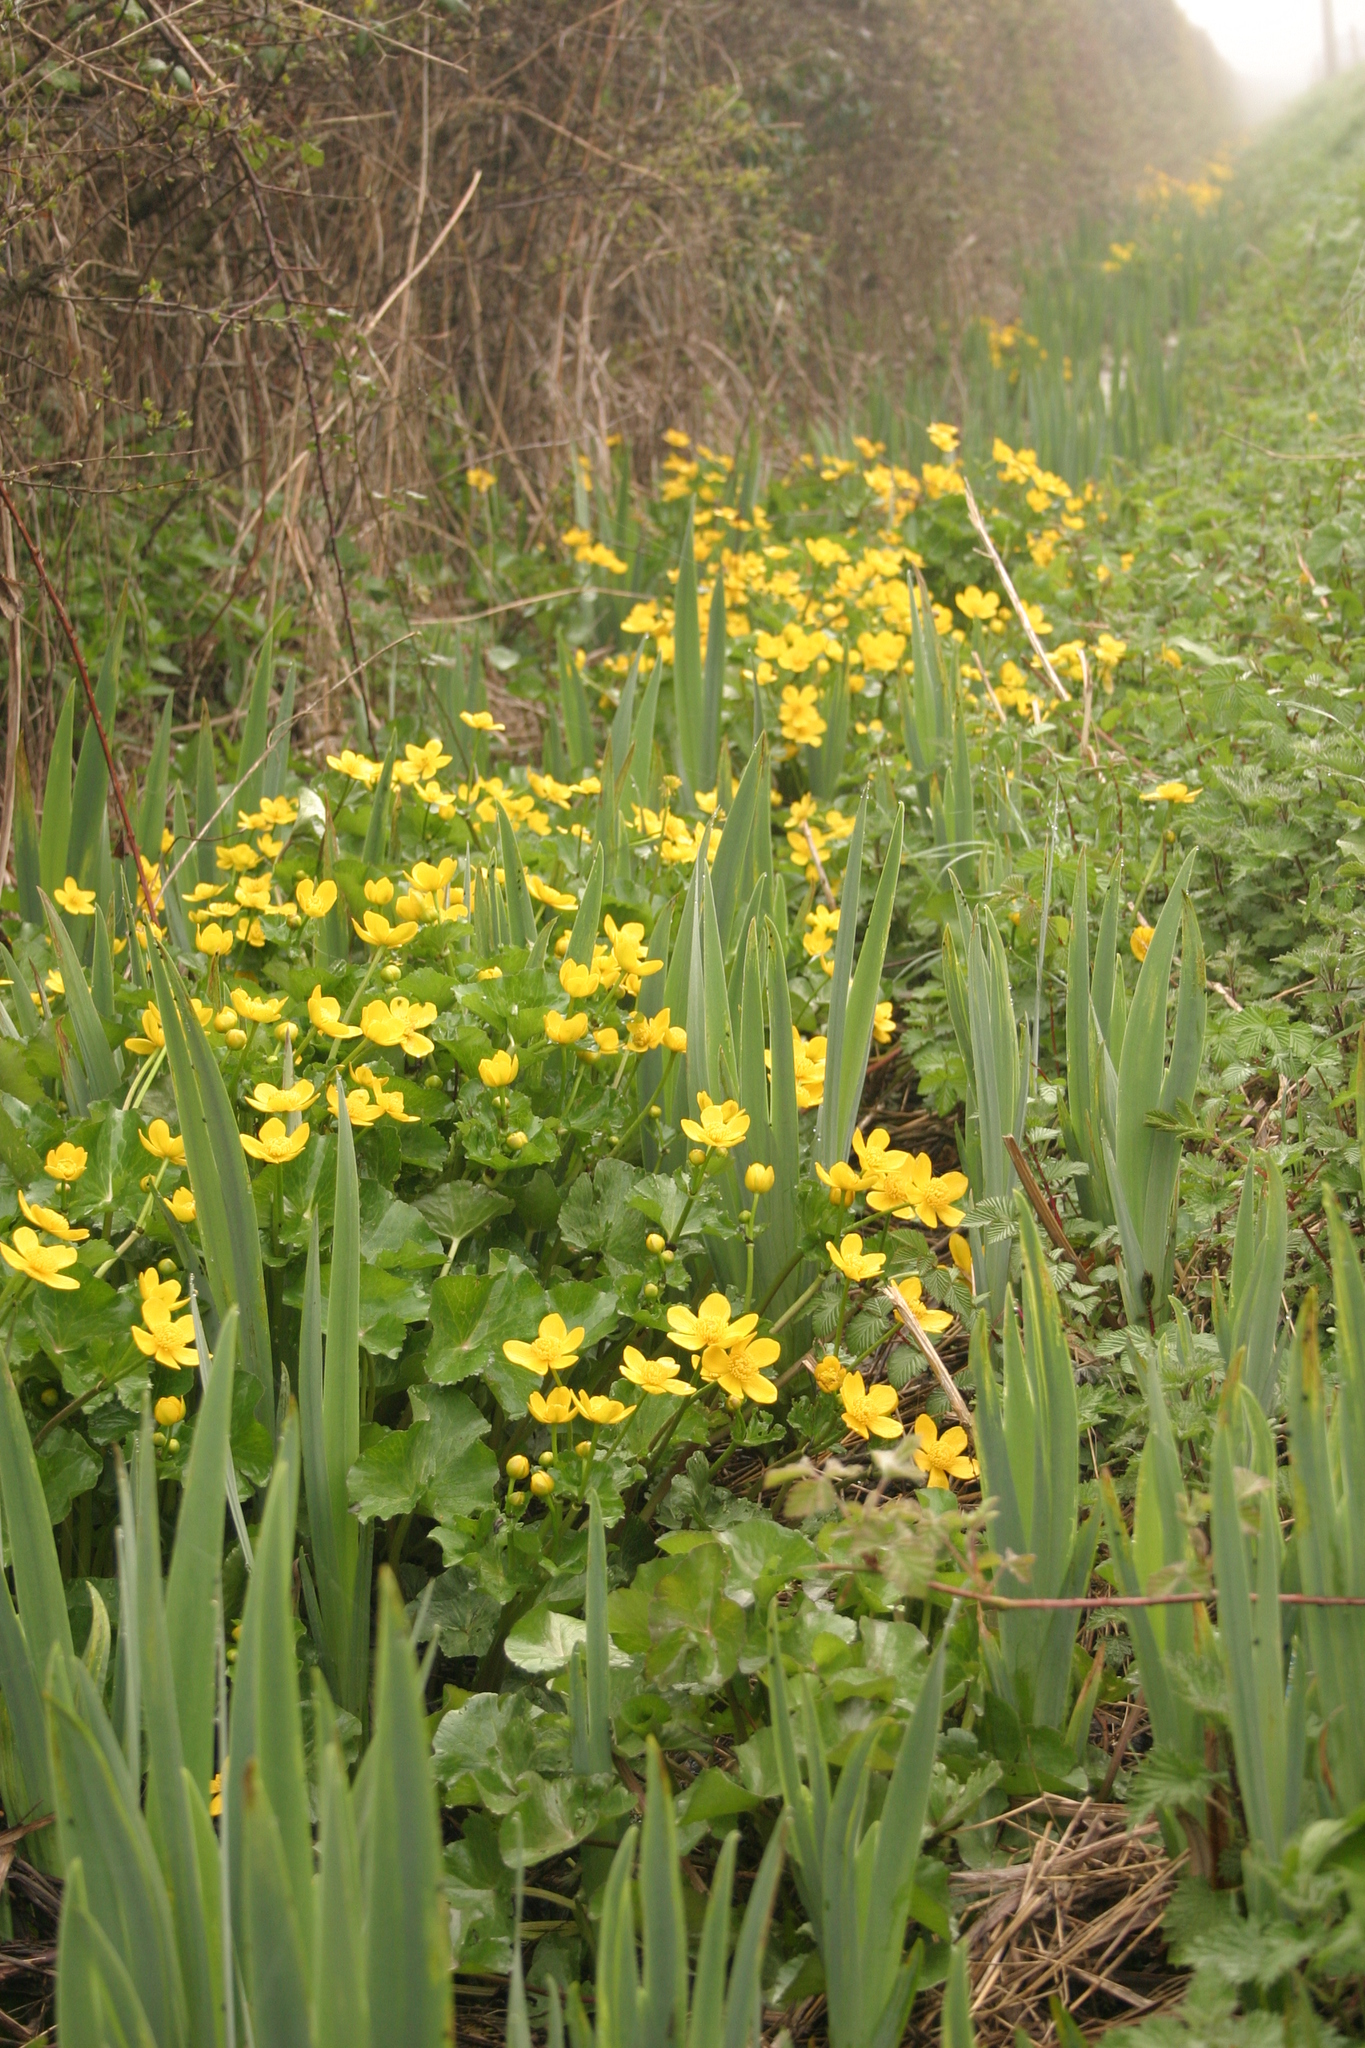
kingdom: Plantae
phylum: Tracheophyta
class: Magnoliopsida
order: Ranunculales
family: Ranunculaceae
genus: Caltha
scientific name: Caltha palustris
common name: Marsh marigold
